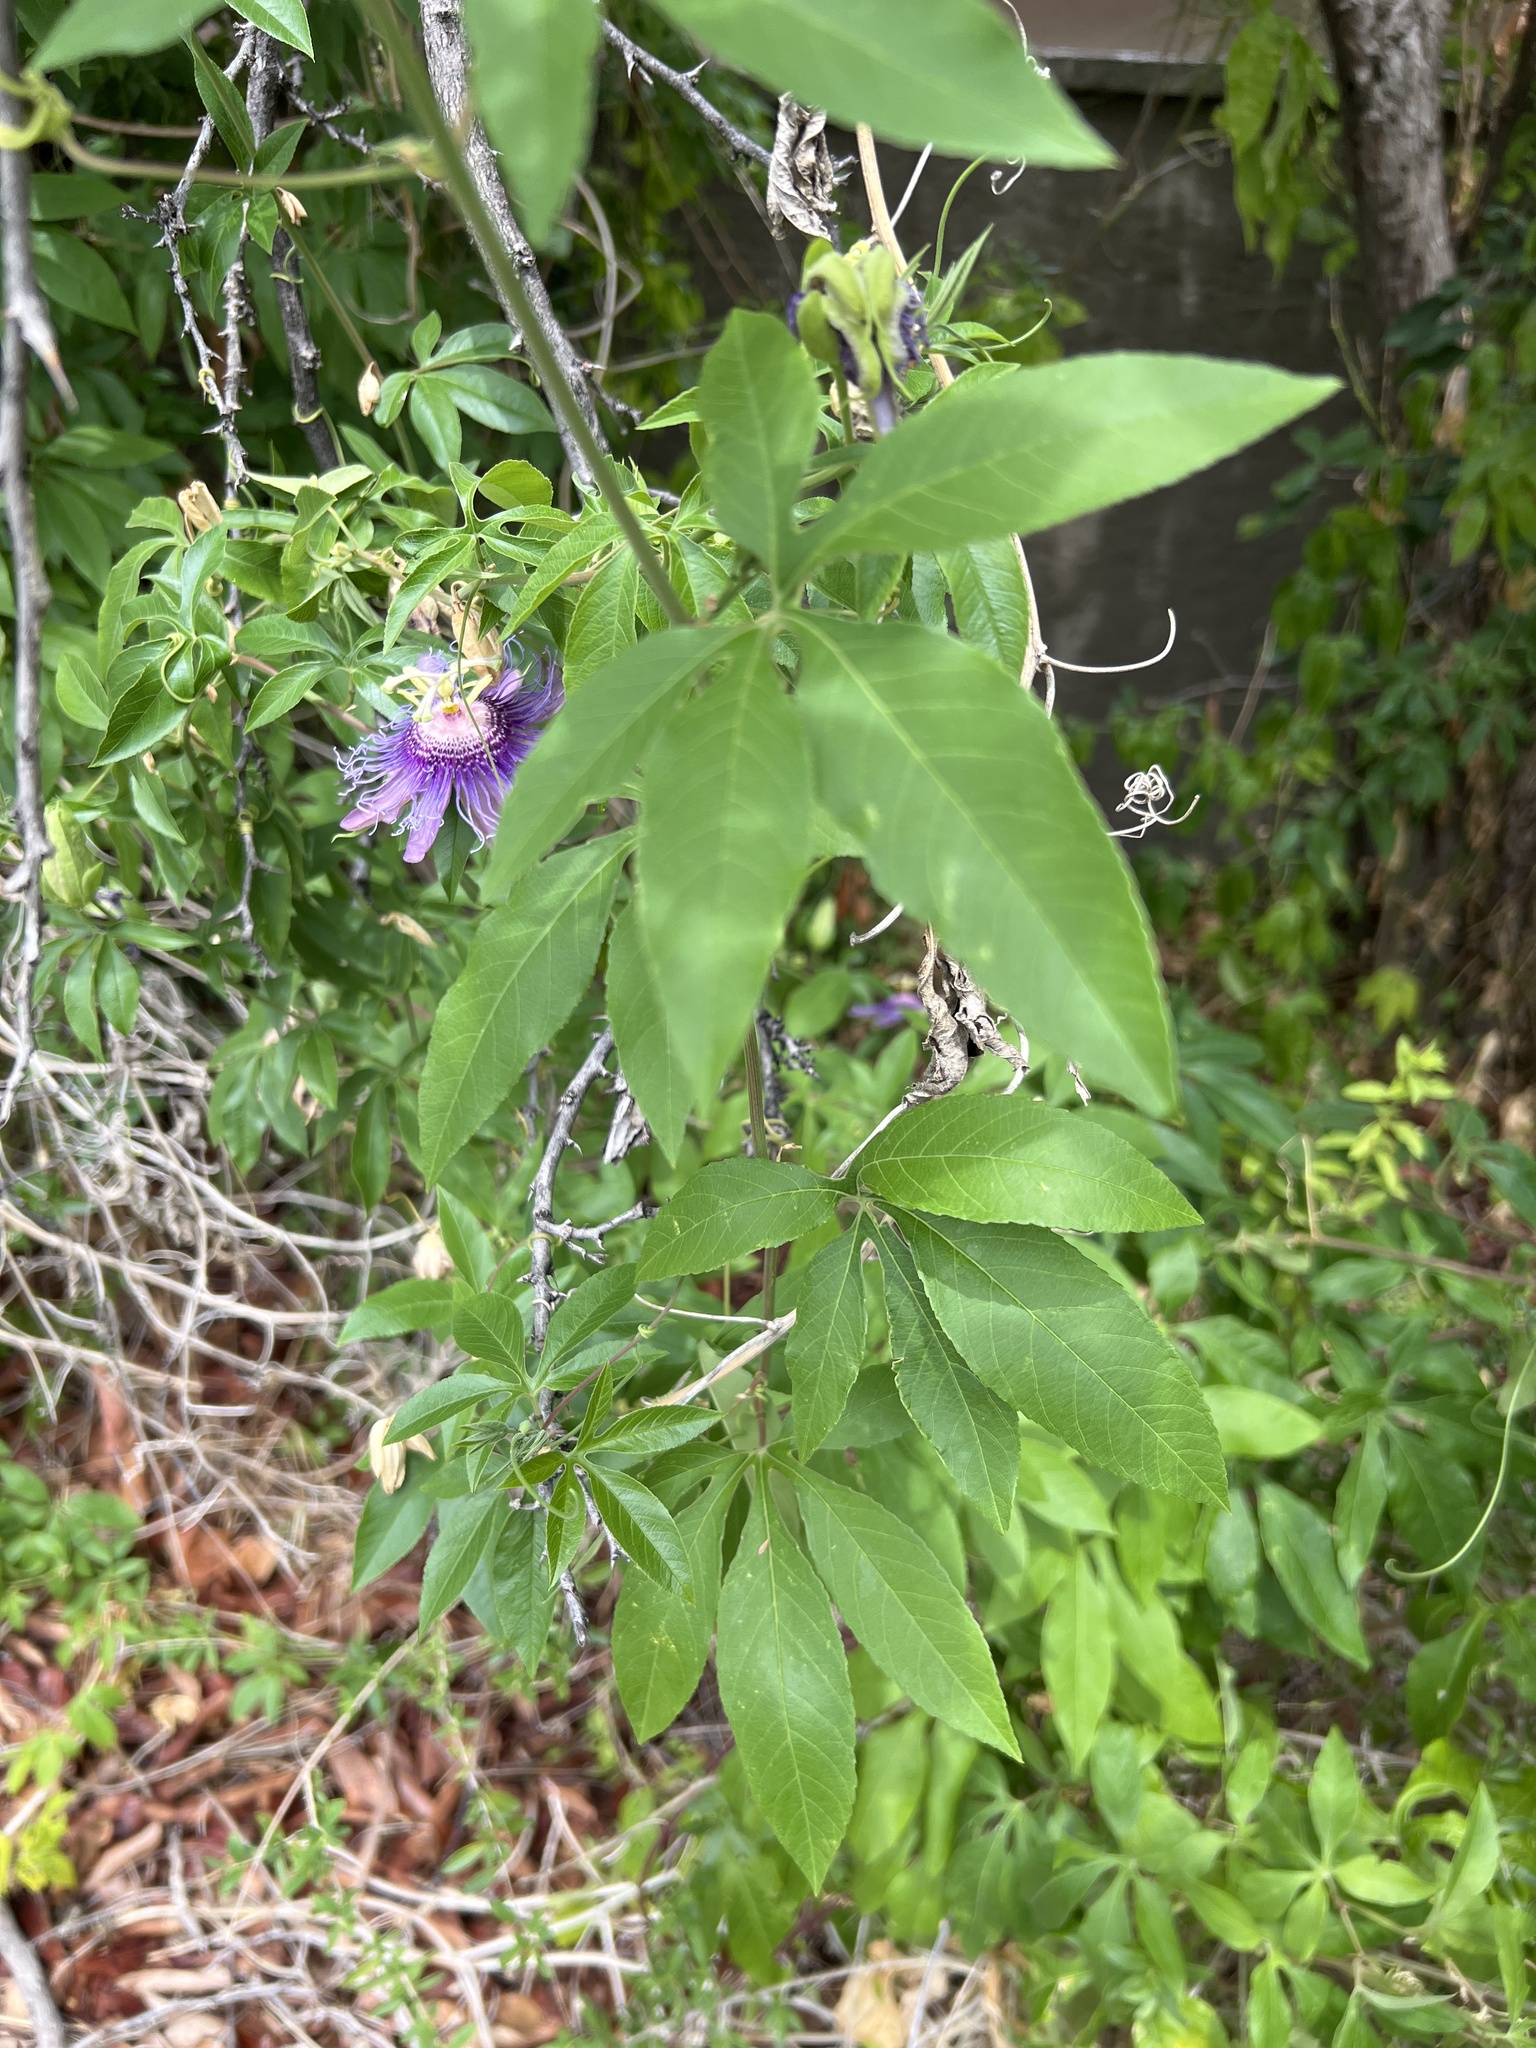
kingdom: Plantae
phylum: Tracheophyta
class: Magnoliopsida
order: Malpighiales
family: Passifloraceae
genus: Passiflora
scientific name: Passiflora
